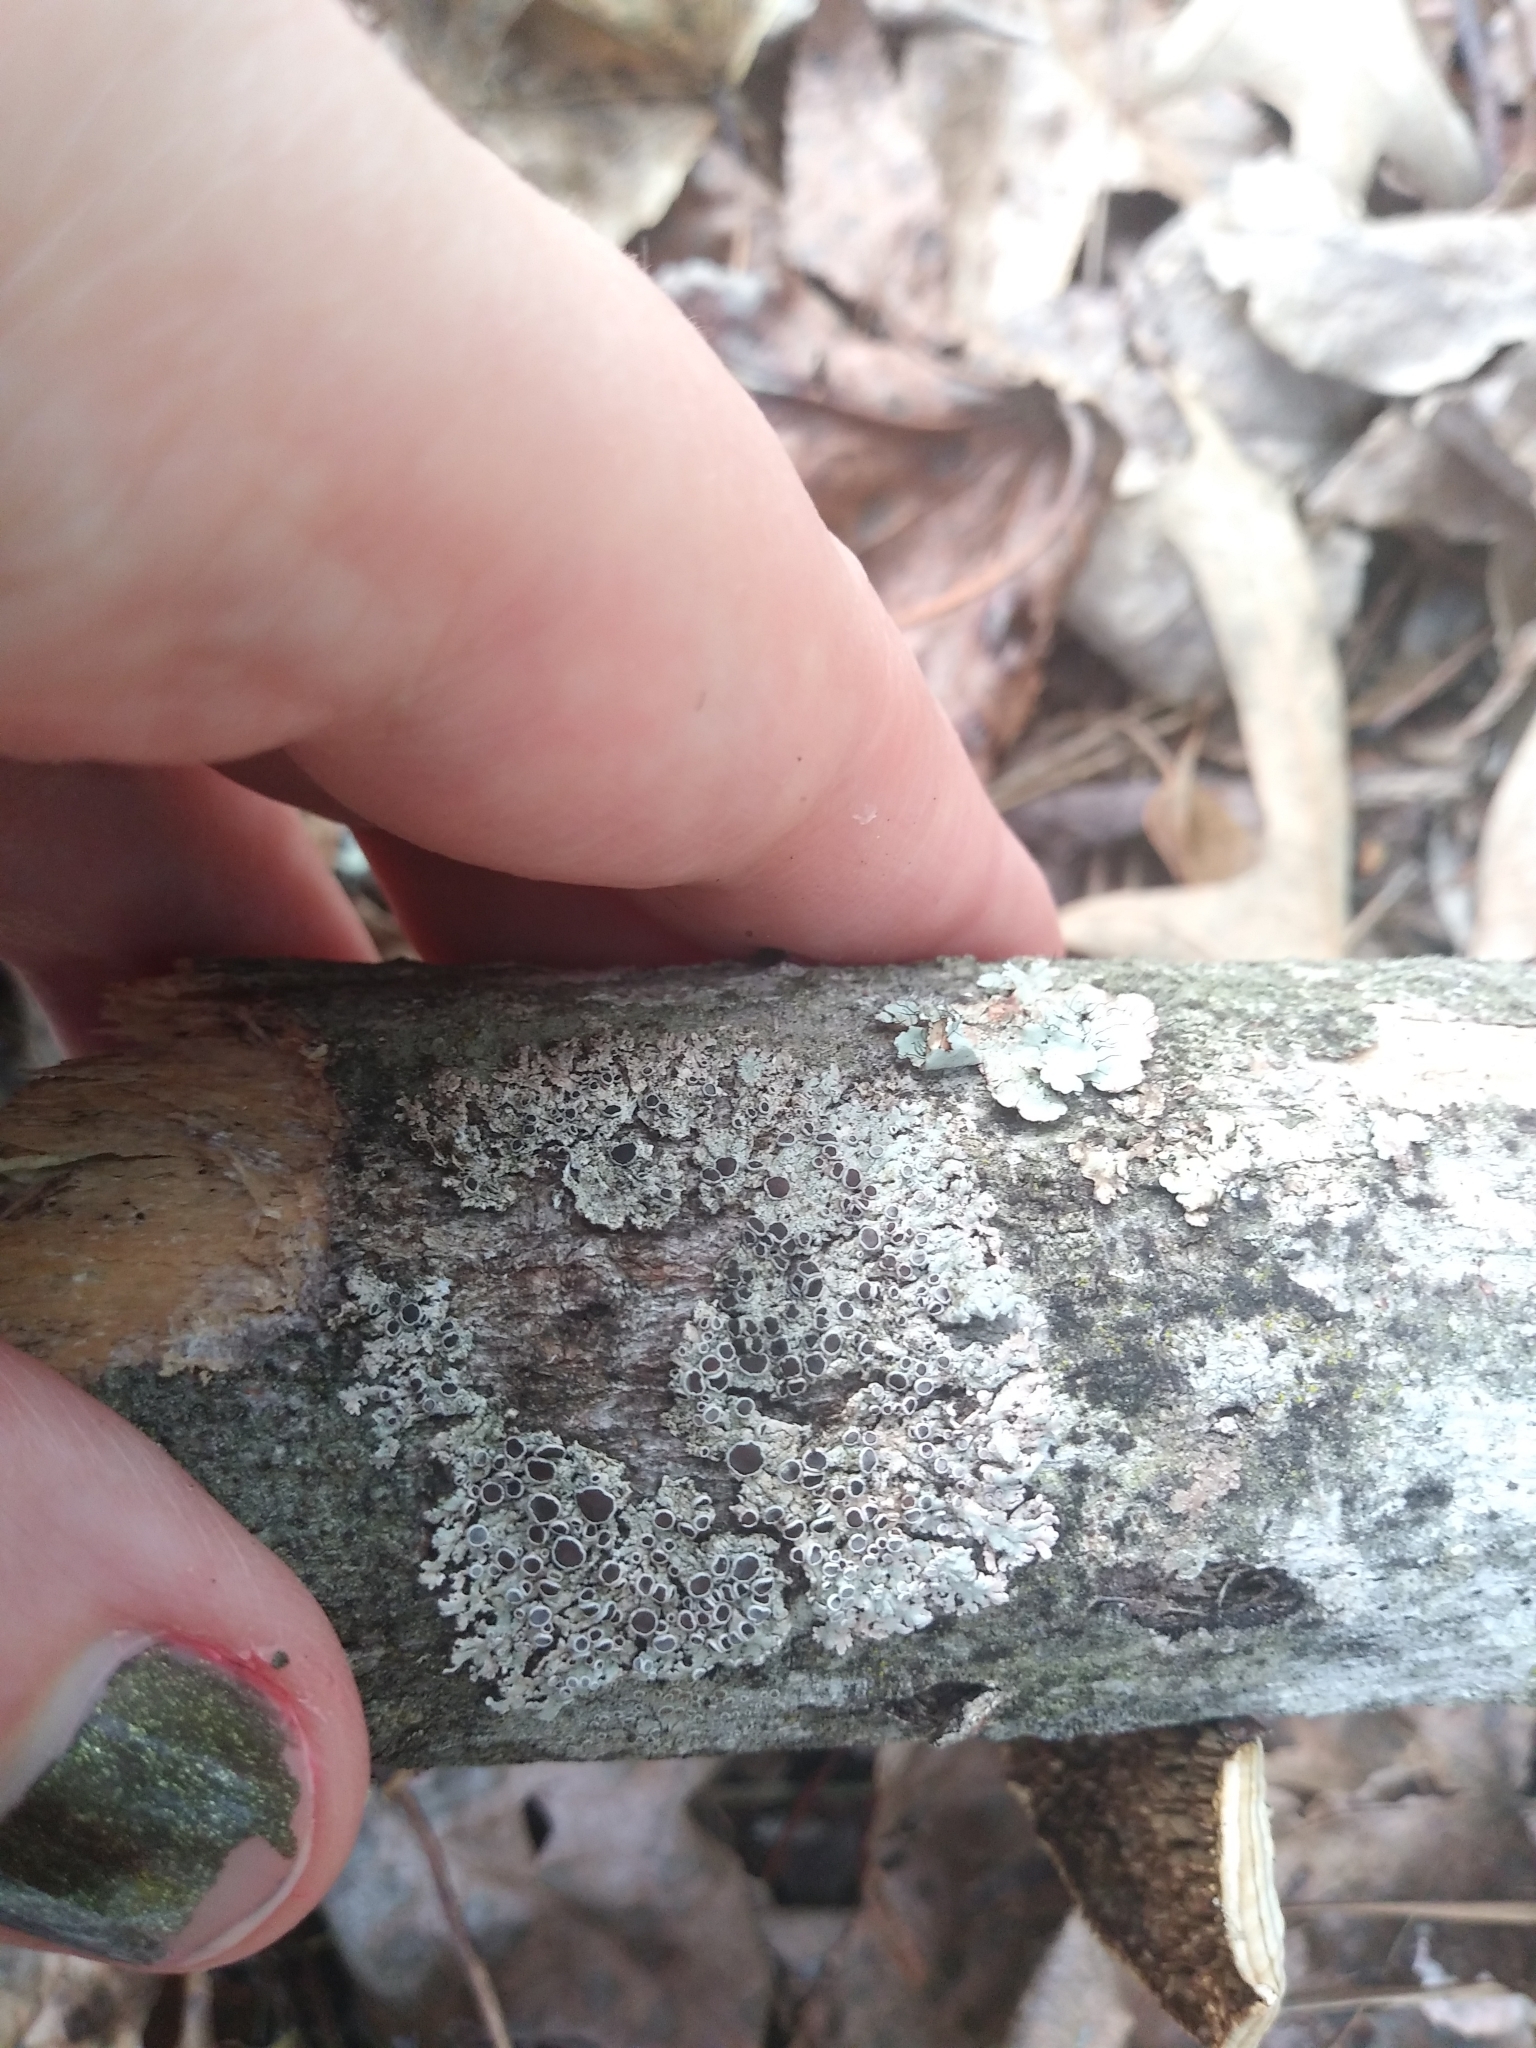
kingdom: Fungi
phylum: Ascomycota
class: Lecanoromycetes
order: Caliciales
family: Physciaceae
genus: Physcia
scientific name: Physcia stellaris
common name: Star rosette lichen
